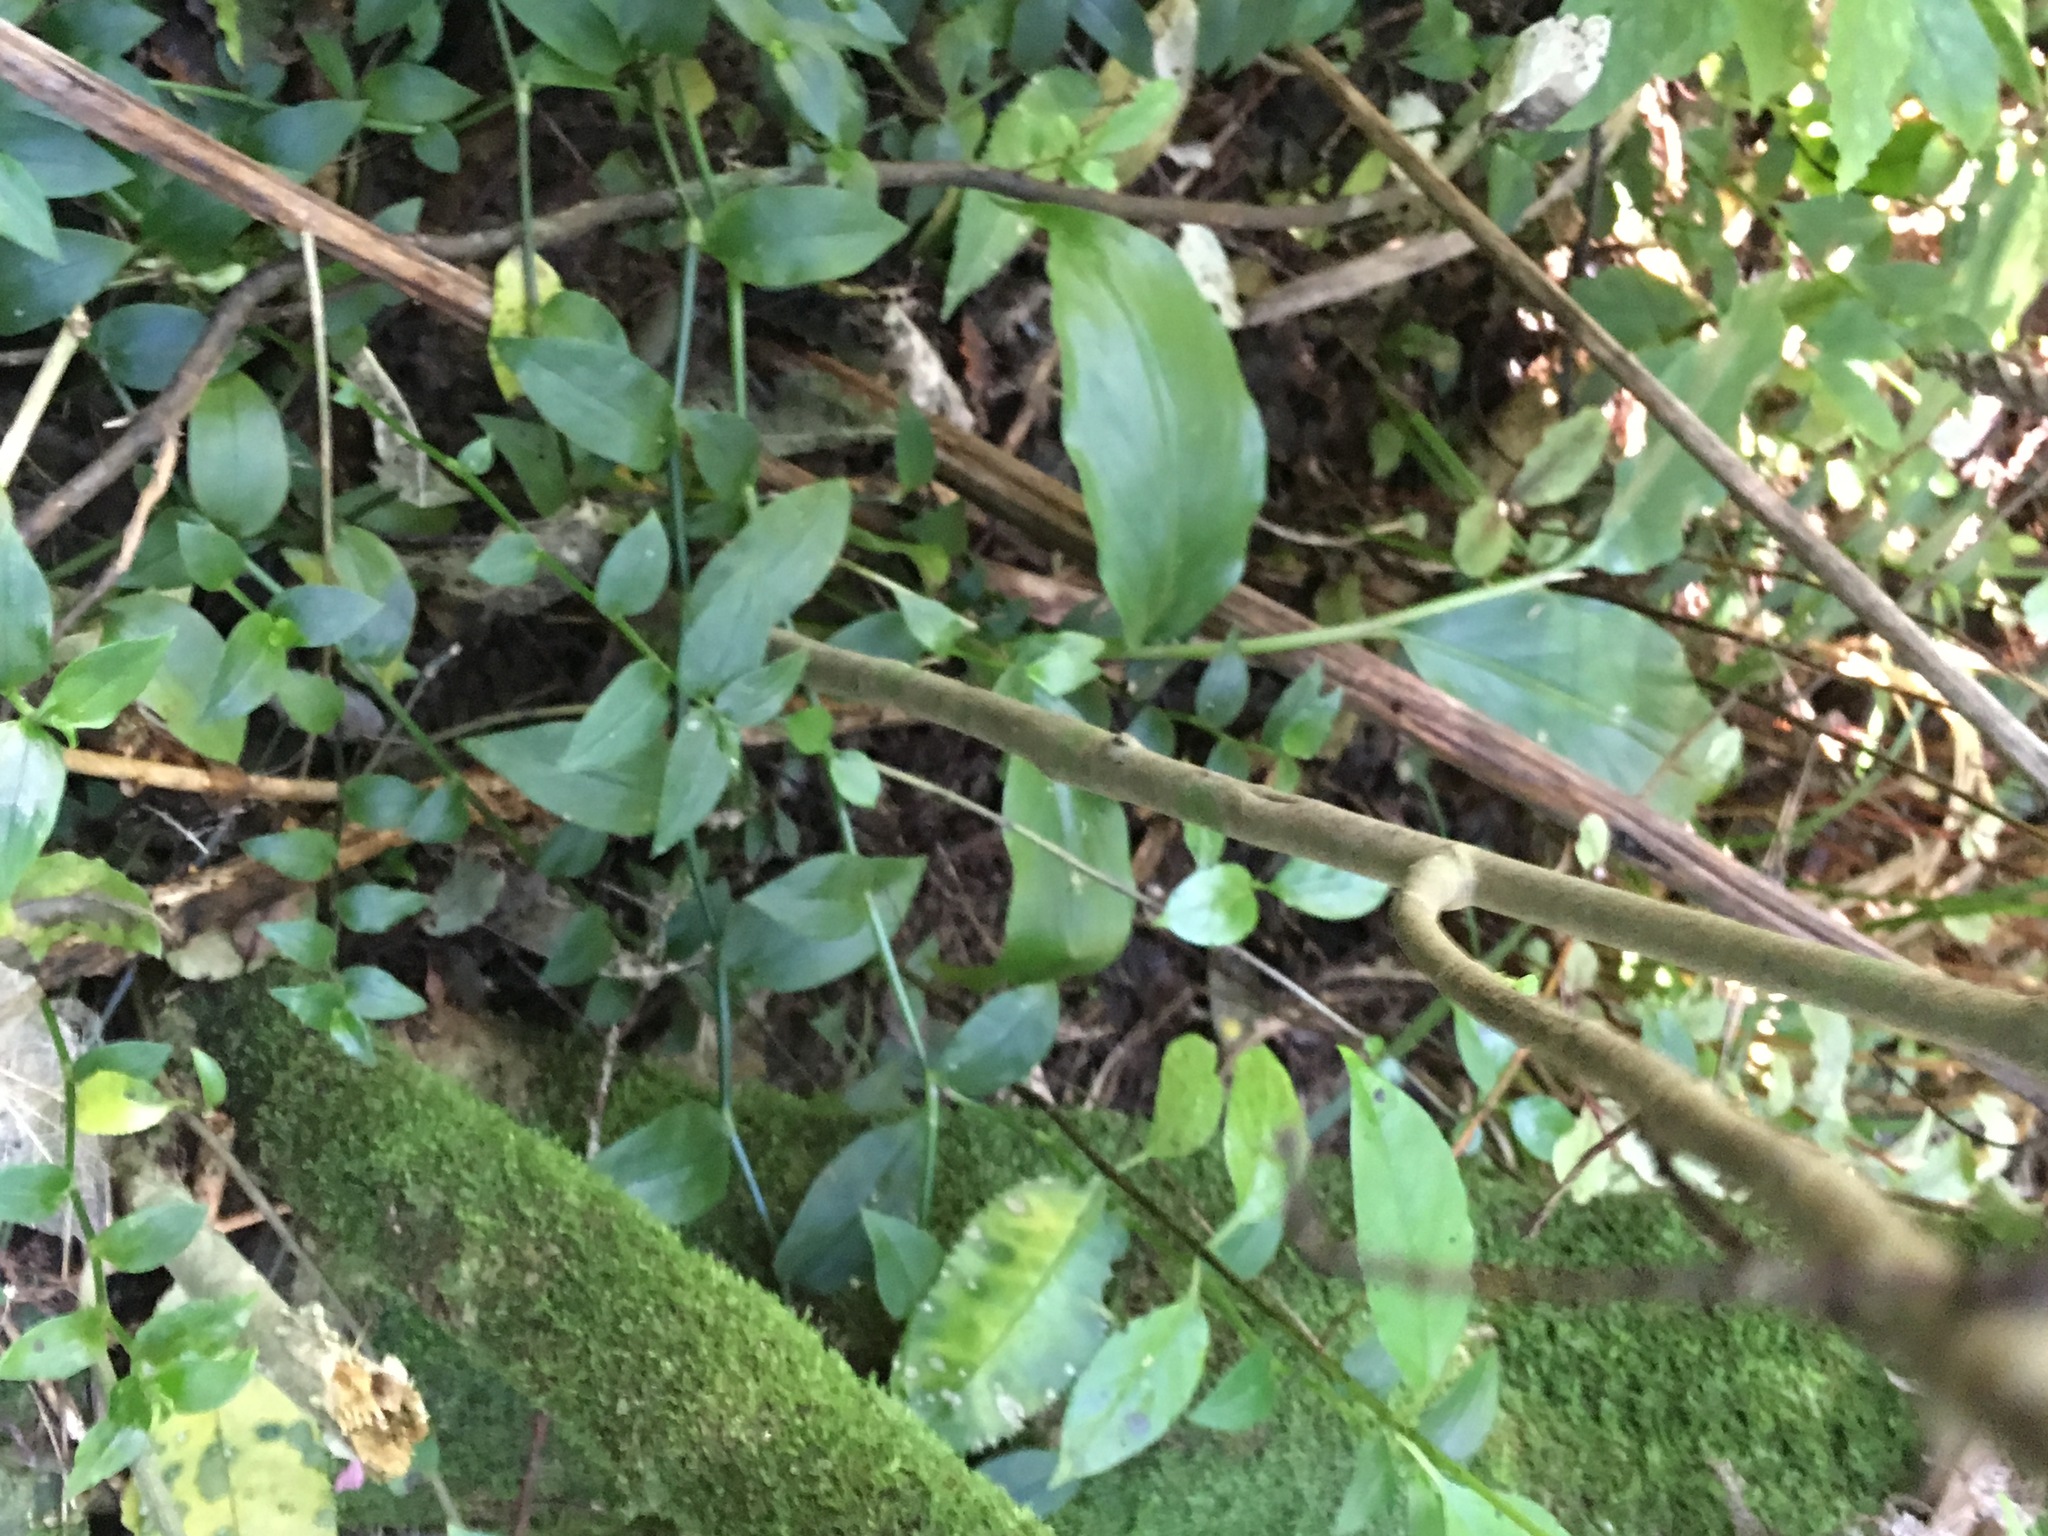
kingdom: Plantae
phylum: Tracheophyta
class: Liliopsida
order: Zingiberales
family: Zingiberaceae
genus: Hedychium
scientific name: Hedychium gardnerianum
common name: Himalayan ginger
